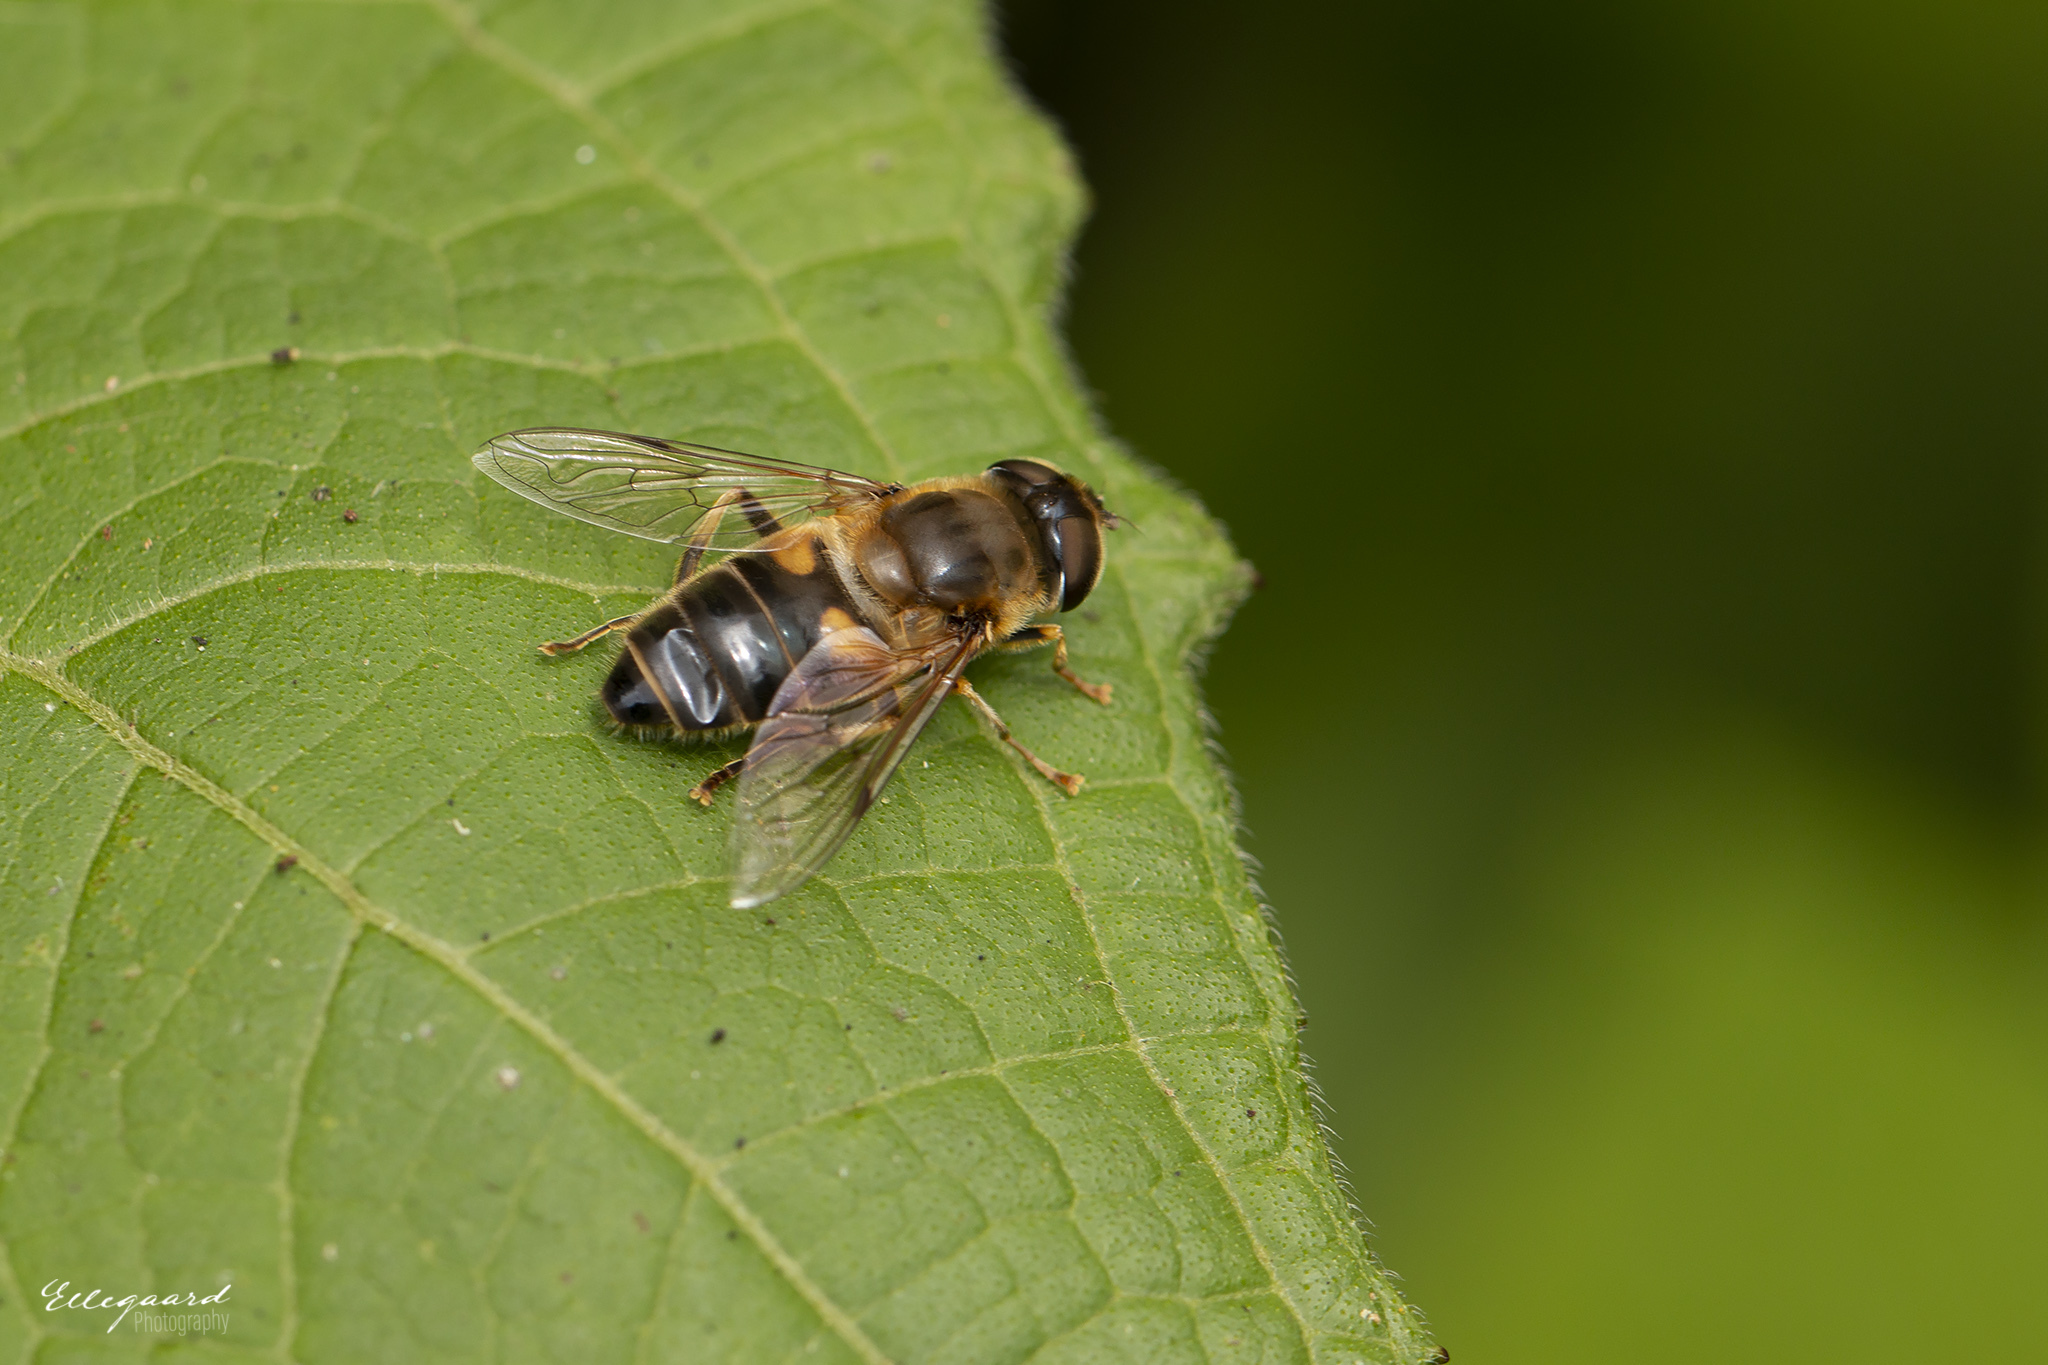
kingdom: Animalia
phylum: Arthropoda
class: Insecta
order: Diptera
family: Syrphidae
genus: Eristalis
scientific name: Eristalis pertinax
